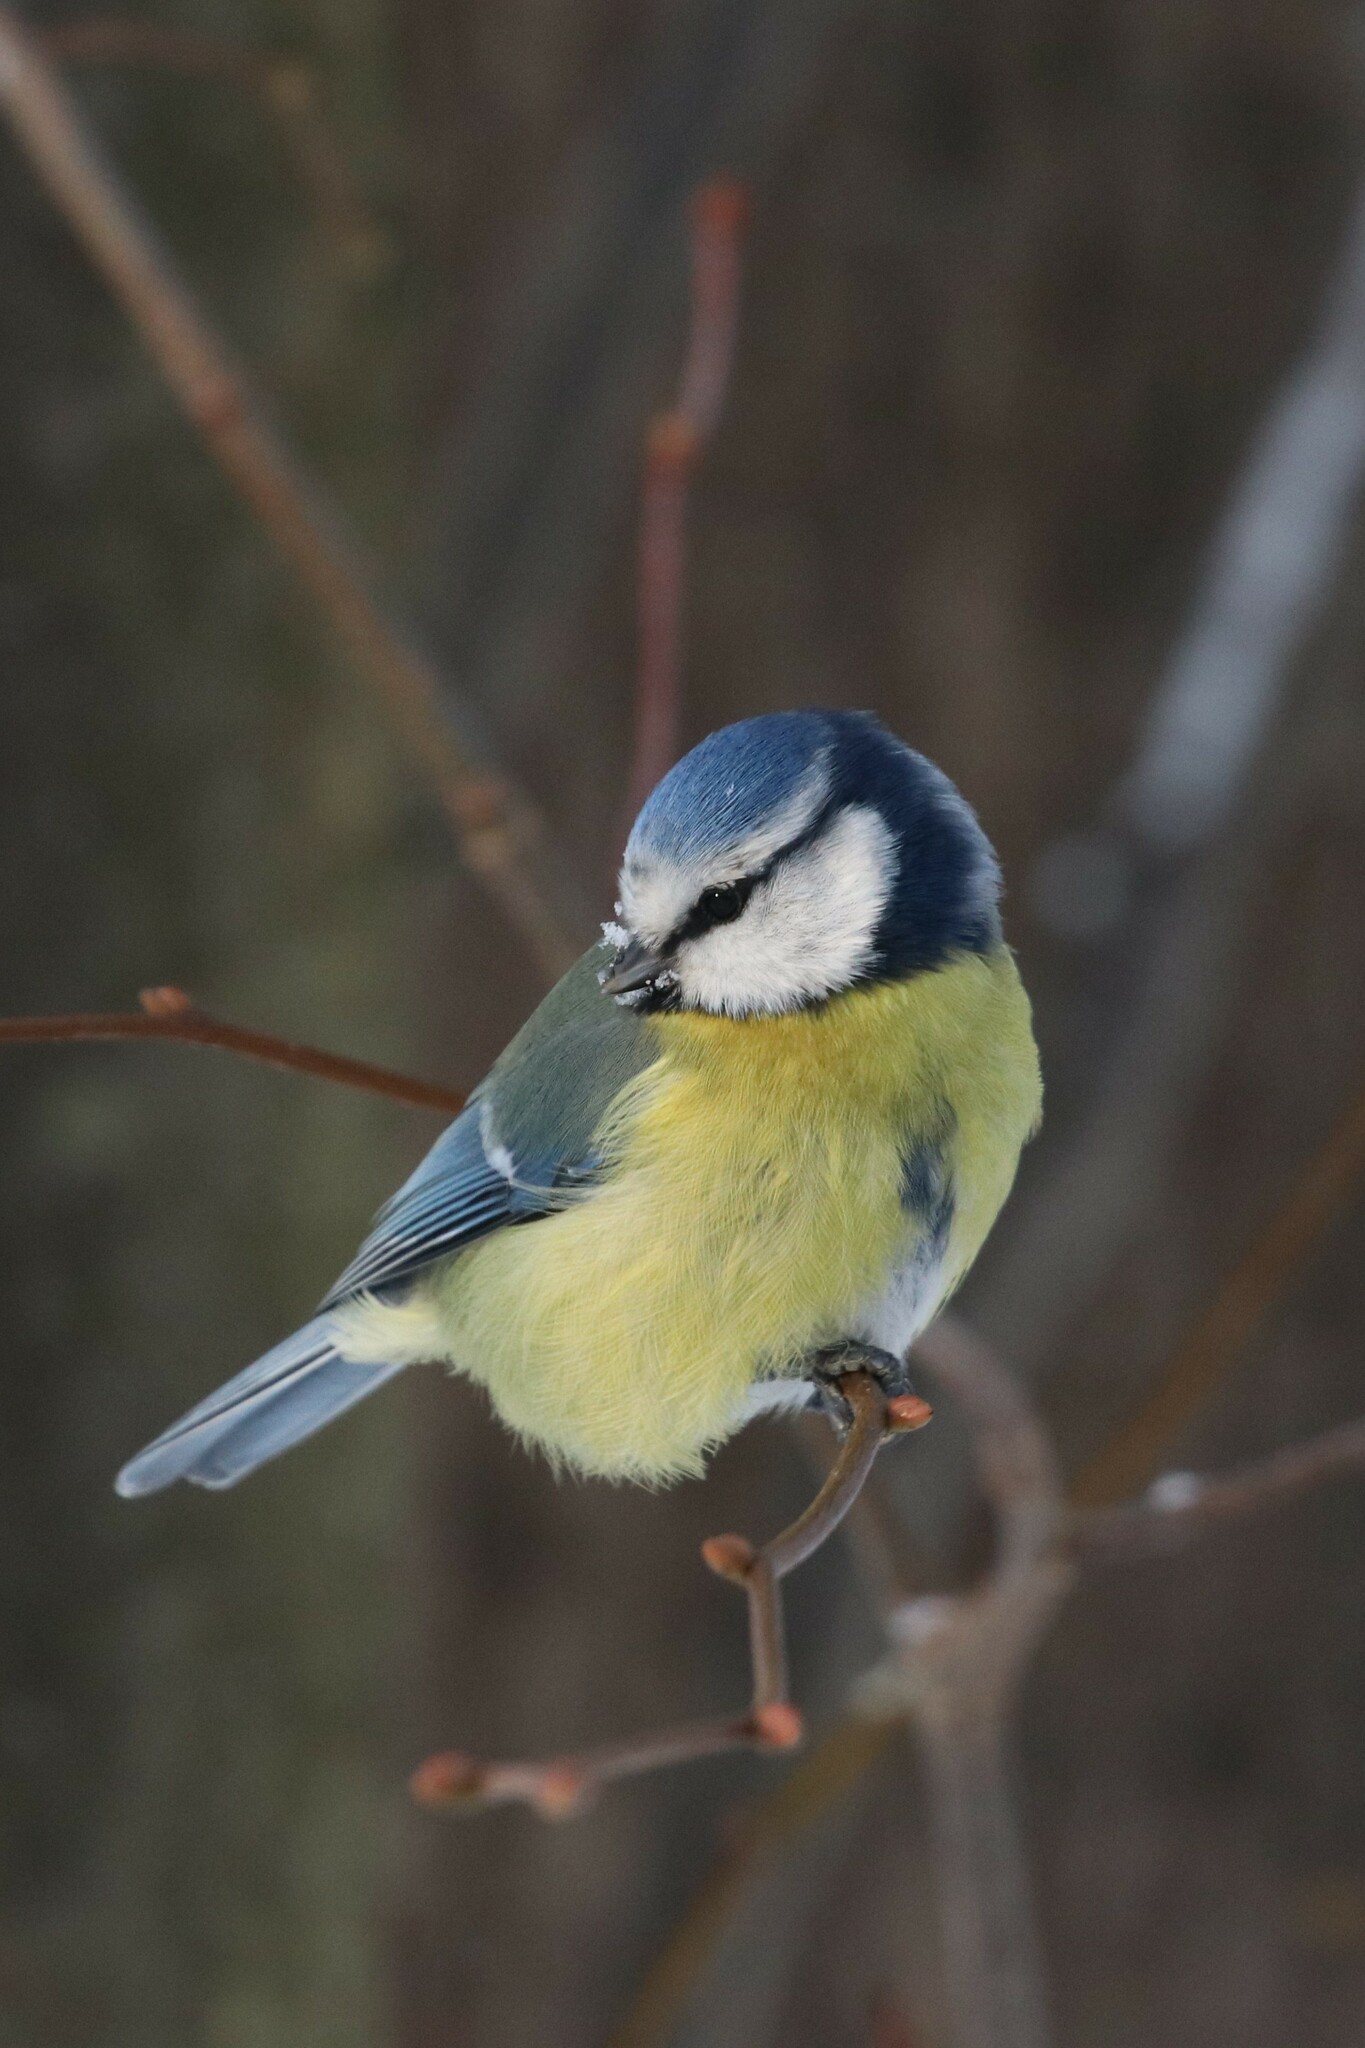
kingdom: Animalia
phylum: Chordata
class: Aves
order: Passeriformes
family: Paridae
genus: Cyanistes
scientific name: Cyanistes caeruleus
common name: Eurasian blue tit
